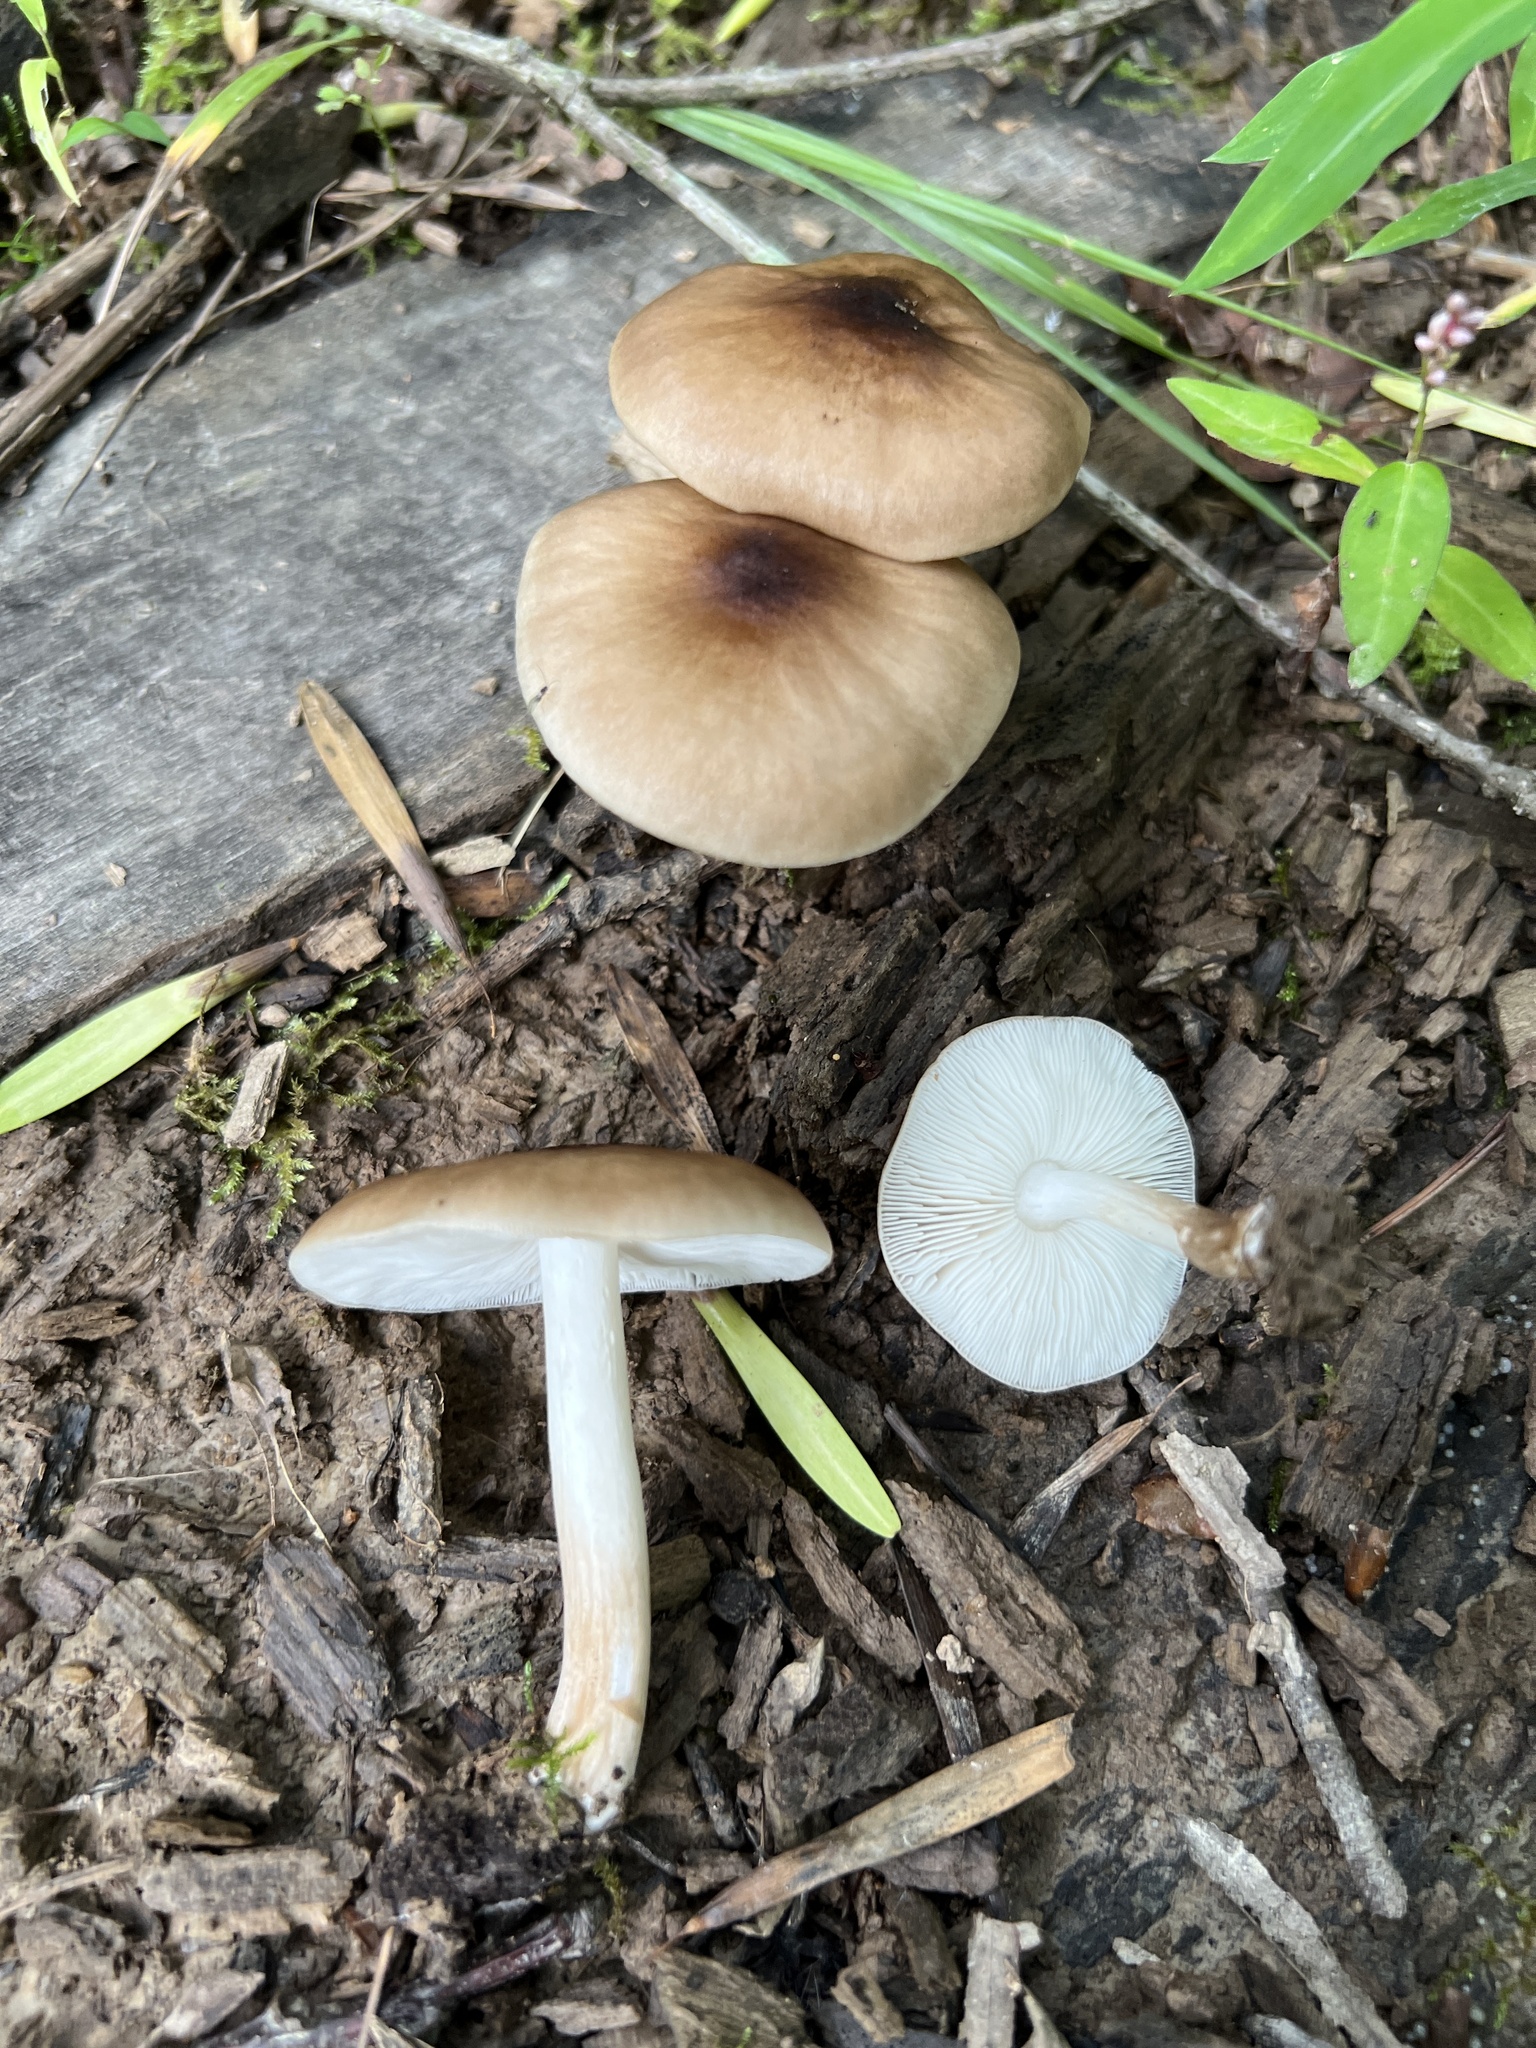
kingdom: Fungi
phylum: Basidiomycota
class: Agaricomycetes
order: Agaricales
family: Pluteaceae
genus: Pluteus
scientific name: Pluteus cervinus
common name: Deer shield
